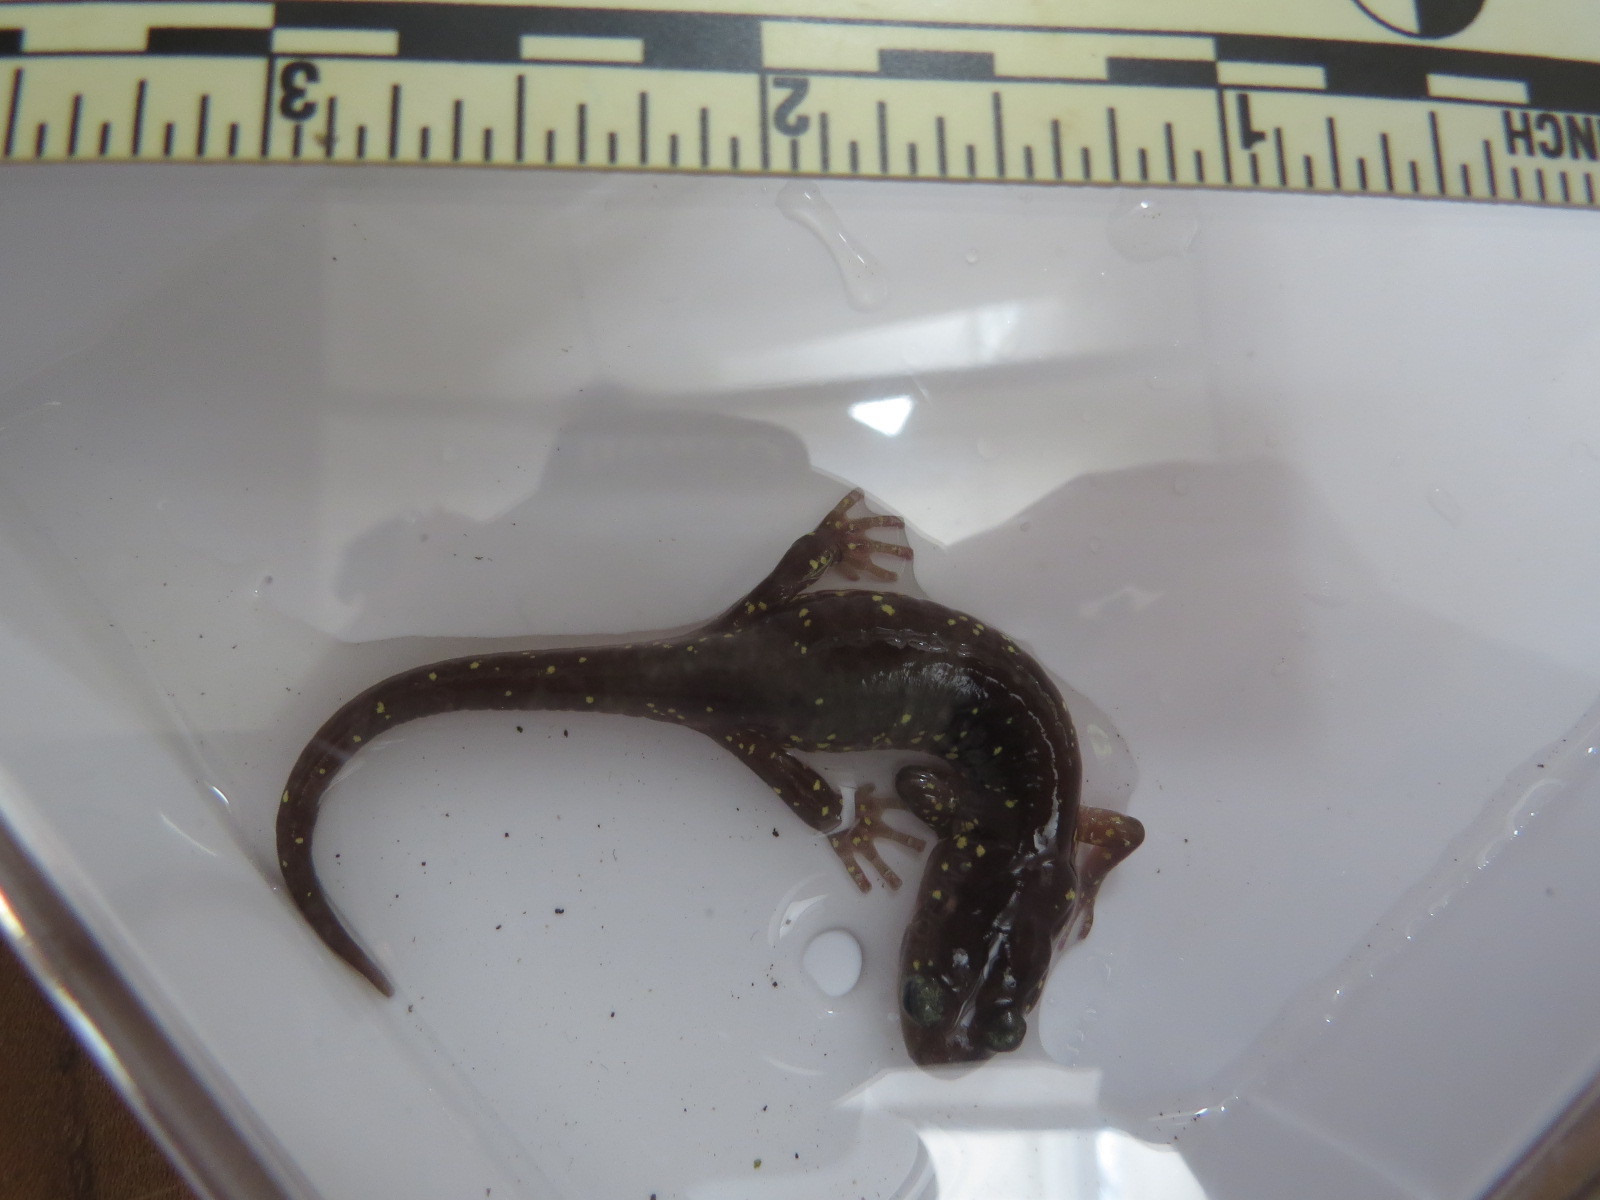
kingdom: Animalia
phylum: Chordata
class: Amphibia
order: Caudata
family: Plethodontidae
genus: Aneides
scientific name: Aneides lugubris
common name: Arboreal salamander
